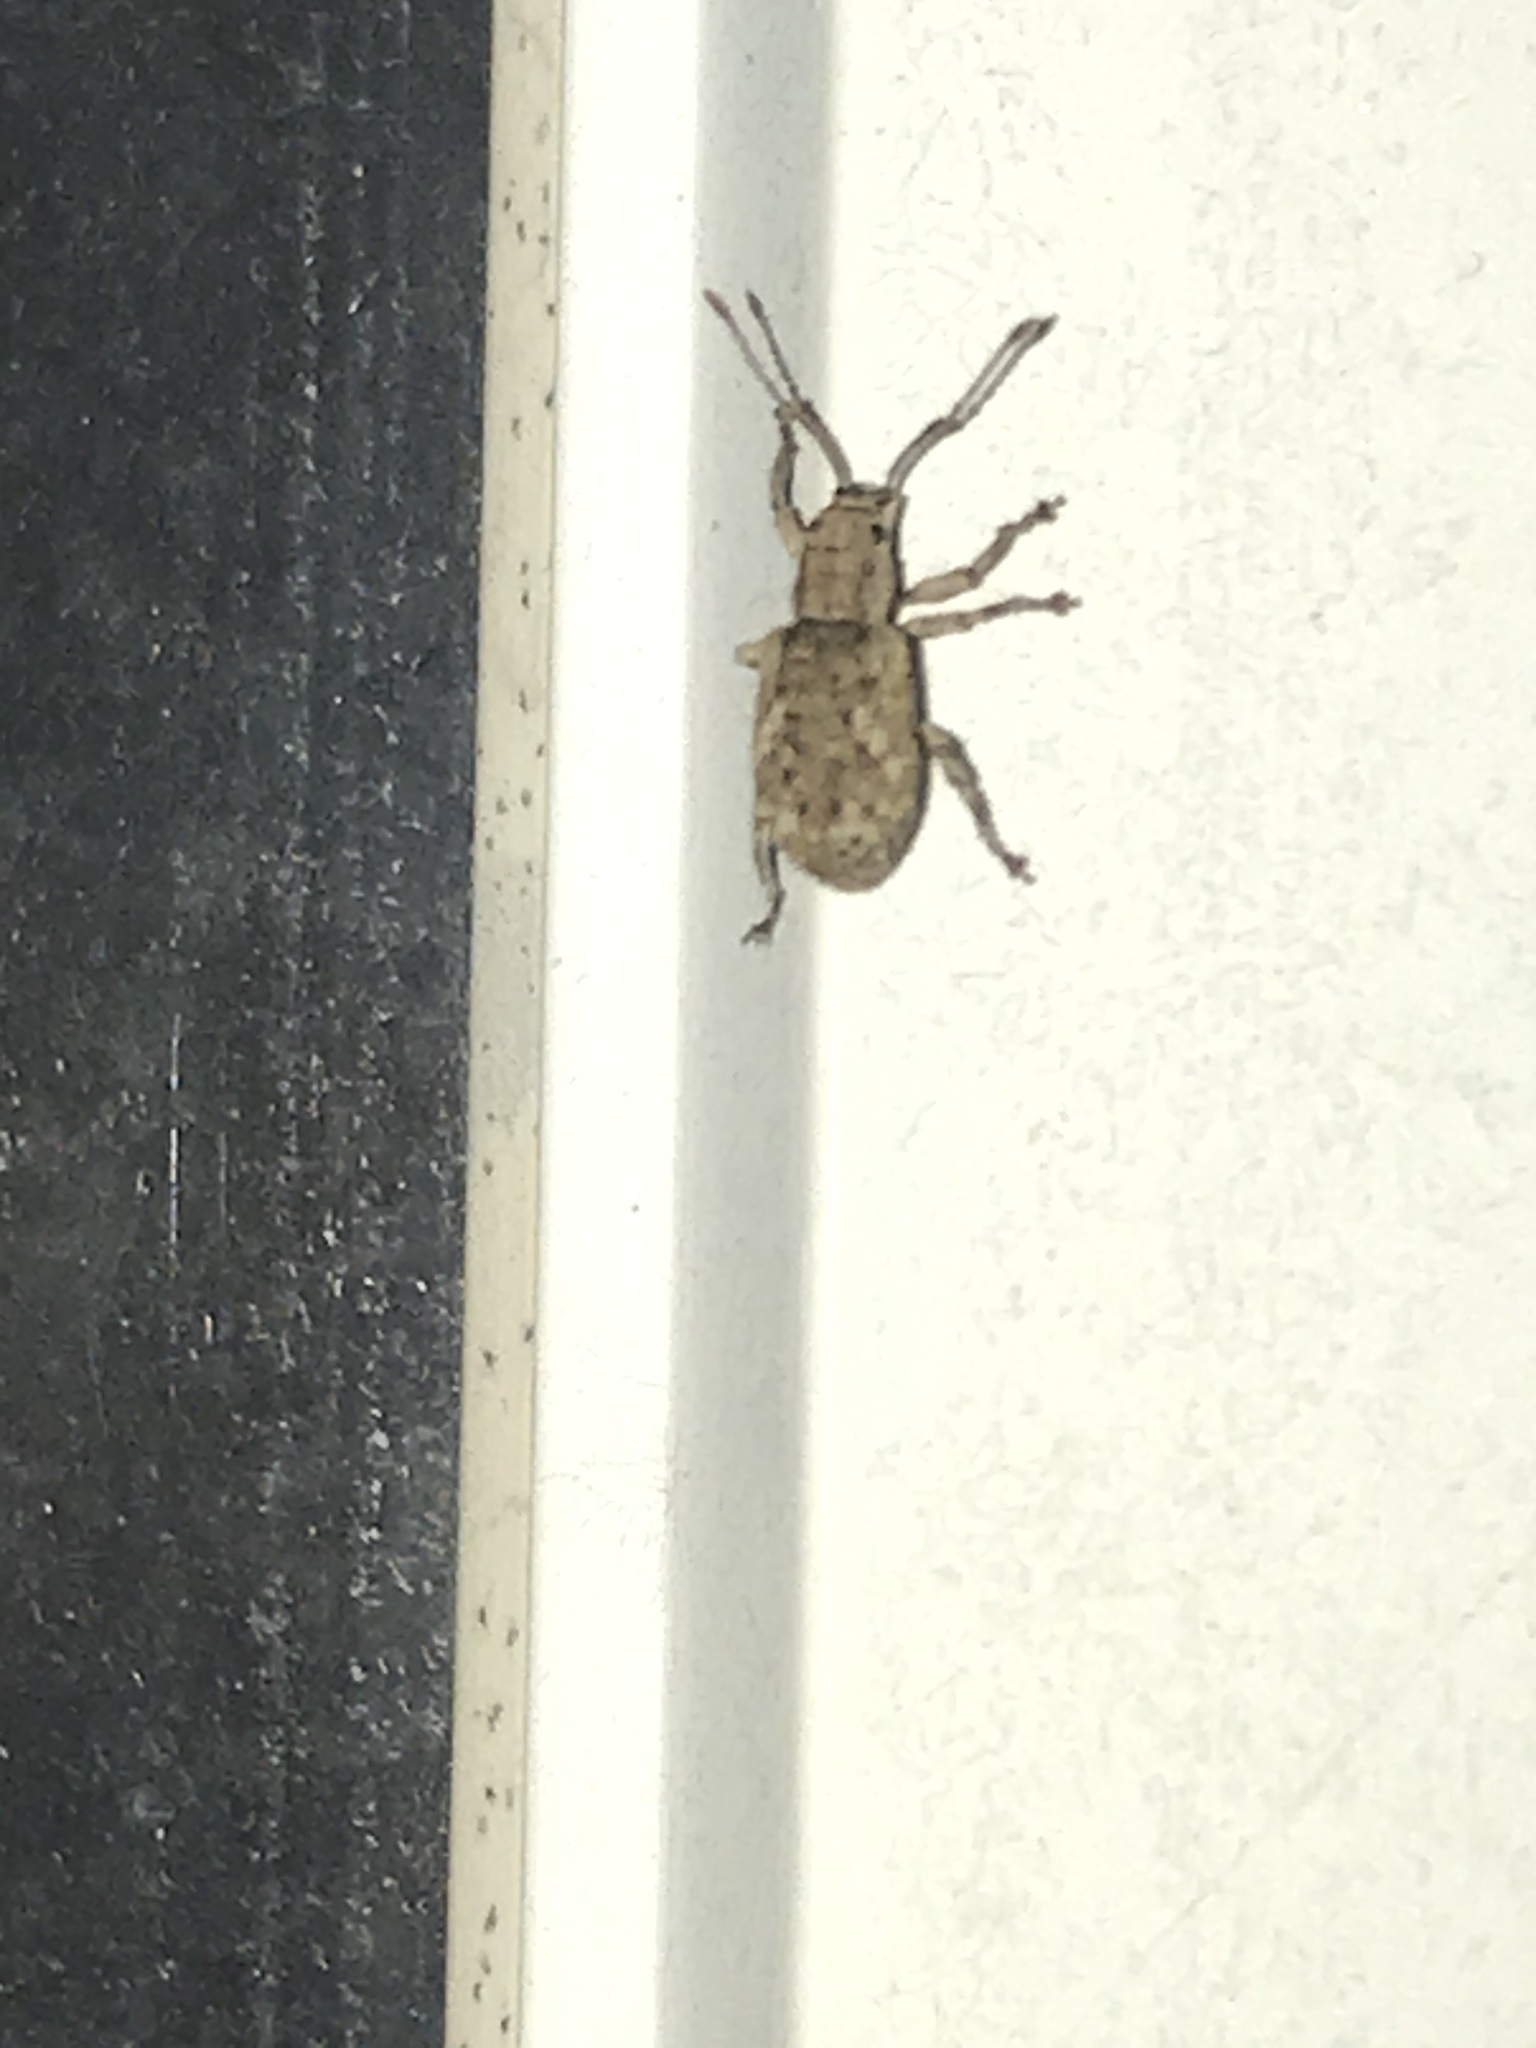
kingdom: Animalia
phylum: Arthropoda
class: Insecta
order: Coleoptera
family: Curculionidae
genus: Pseudoedophrys
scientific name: Pseudoedophrys hilleri
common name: Weevil
